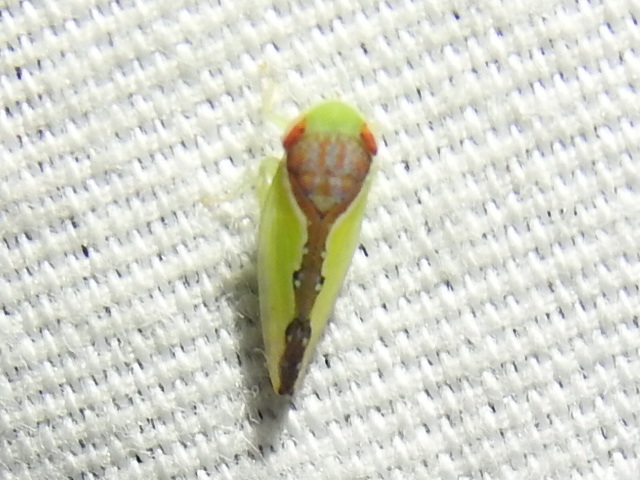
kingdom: Animalia
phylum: Arthropoda
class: Insecta
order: Hemiptera
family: Cicadellidae
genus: Omansobara ing
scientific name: Omansobara ing Omansobara palliolata
